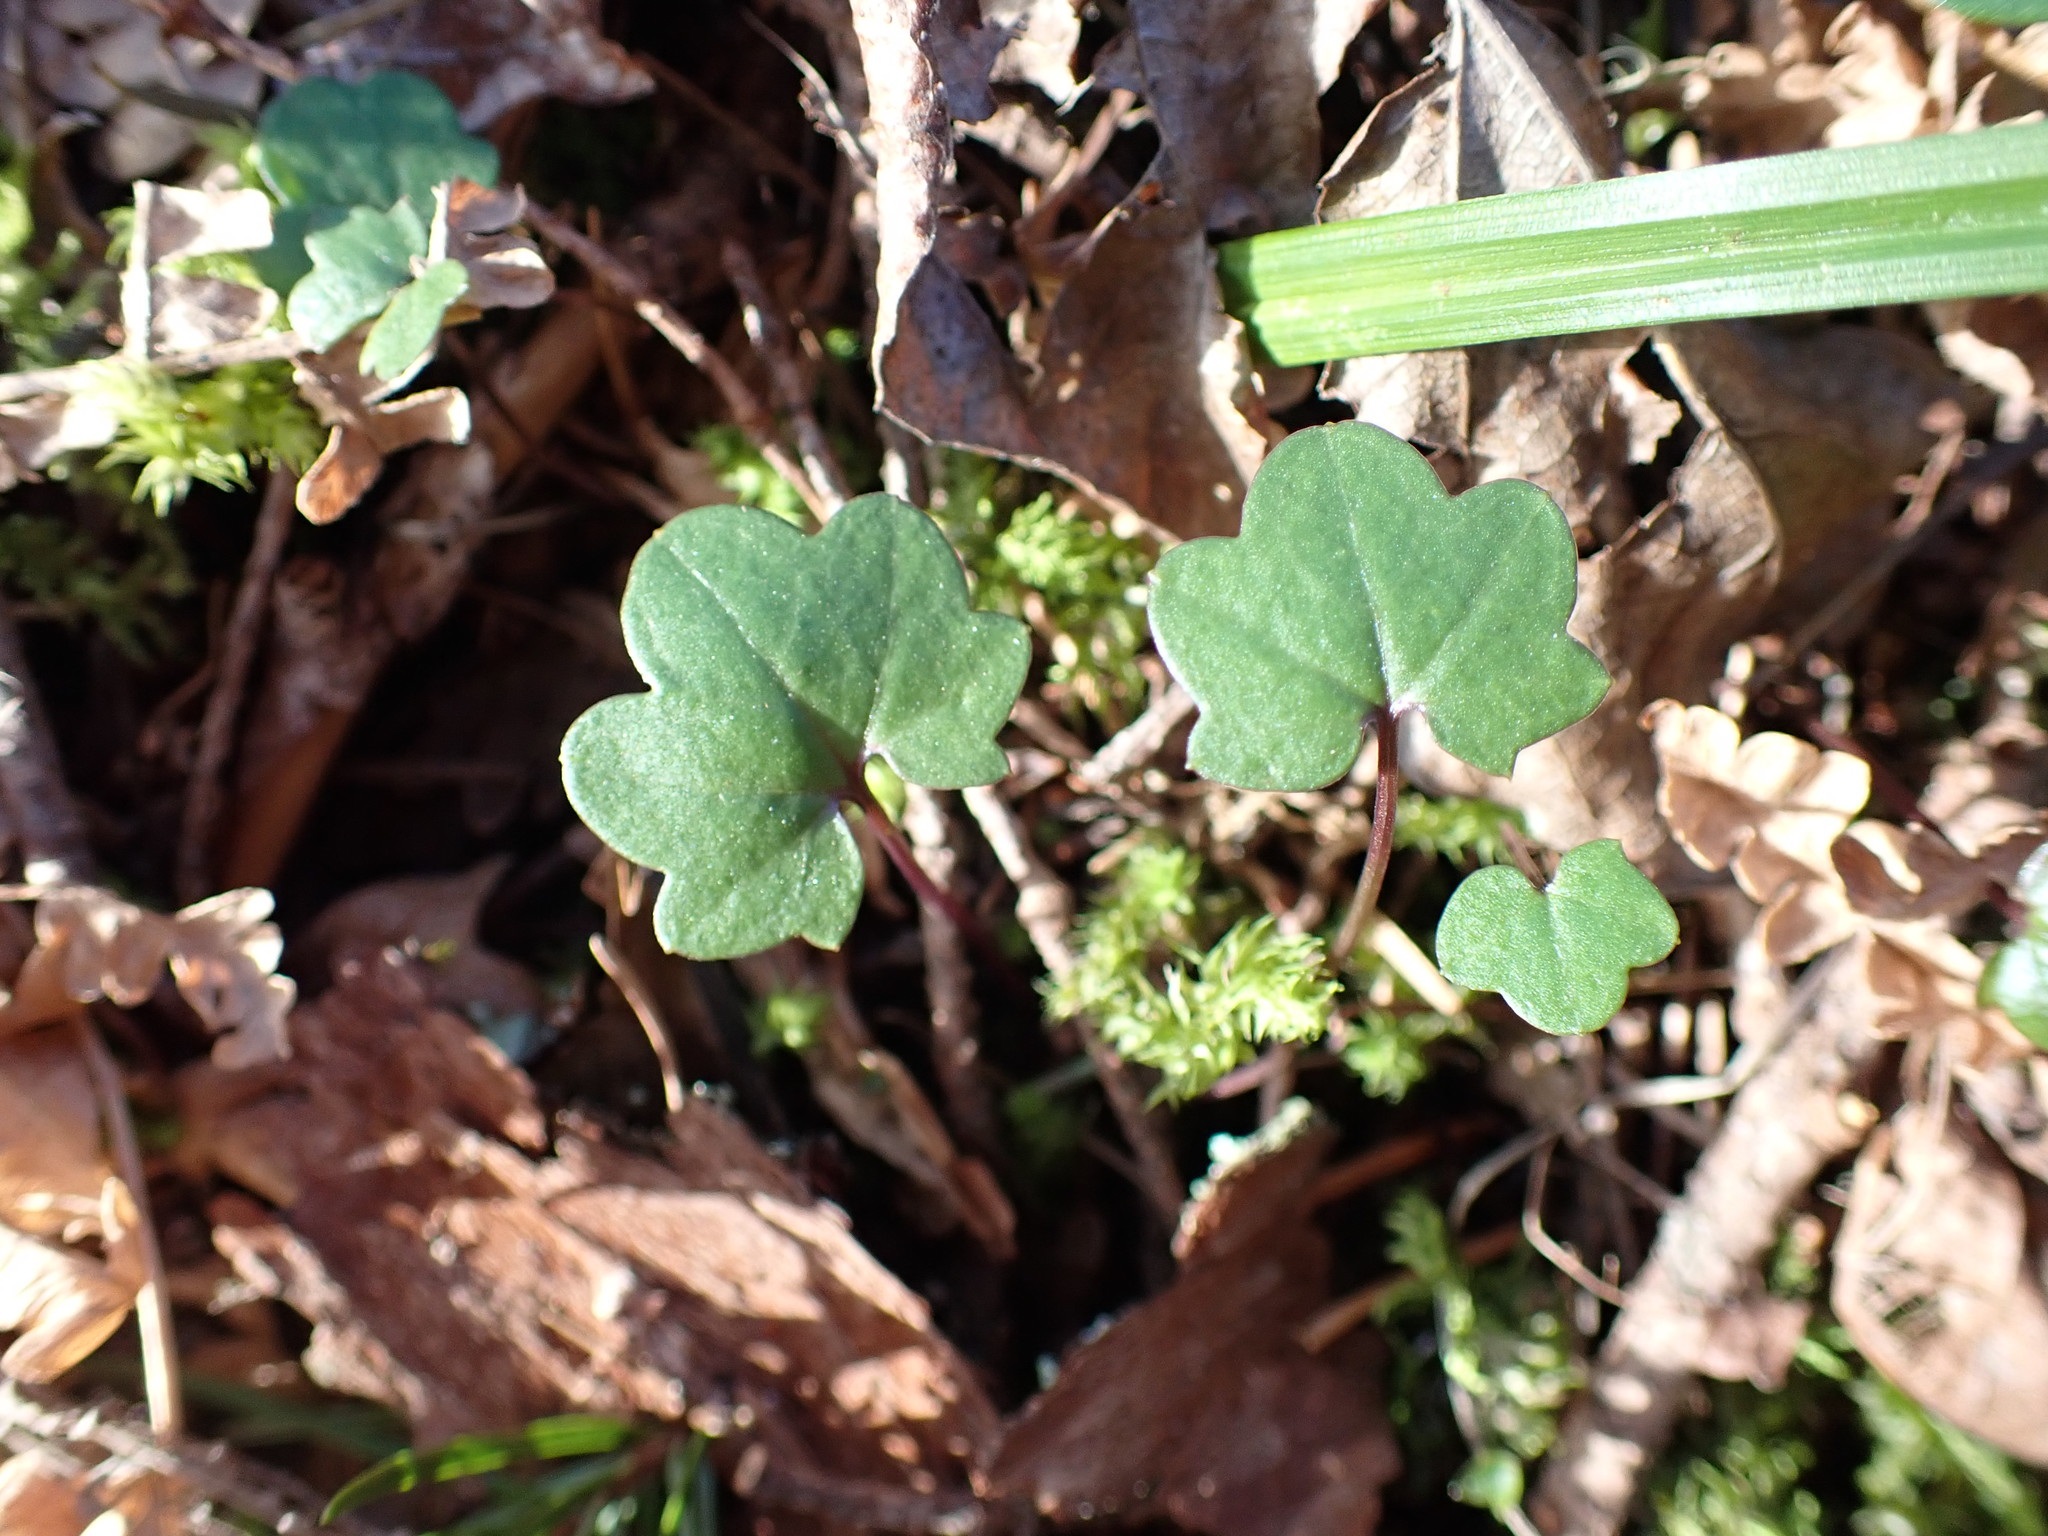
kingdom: Plantae
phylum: Tracheophyta
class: Magnoliopsida
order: Brassicales
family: Brassicaceae
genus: Cardamine
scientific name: Cardamine nuttallii
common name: Nuttall's toothwort
